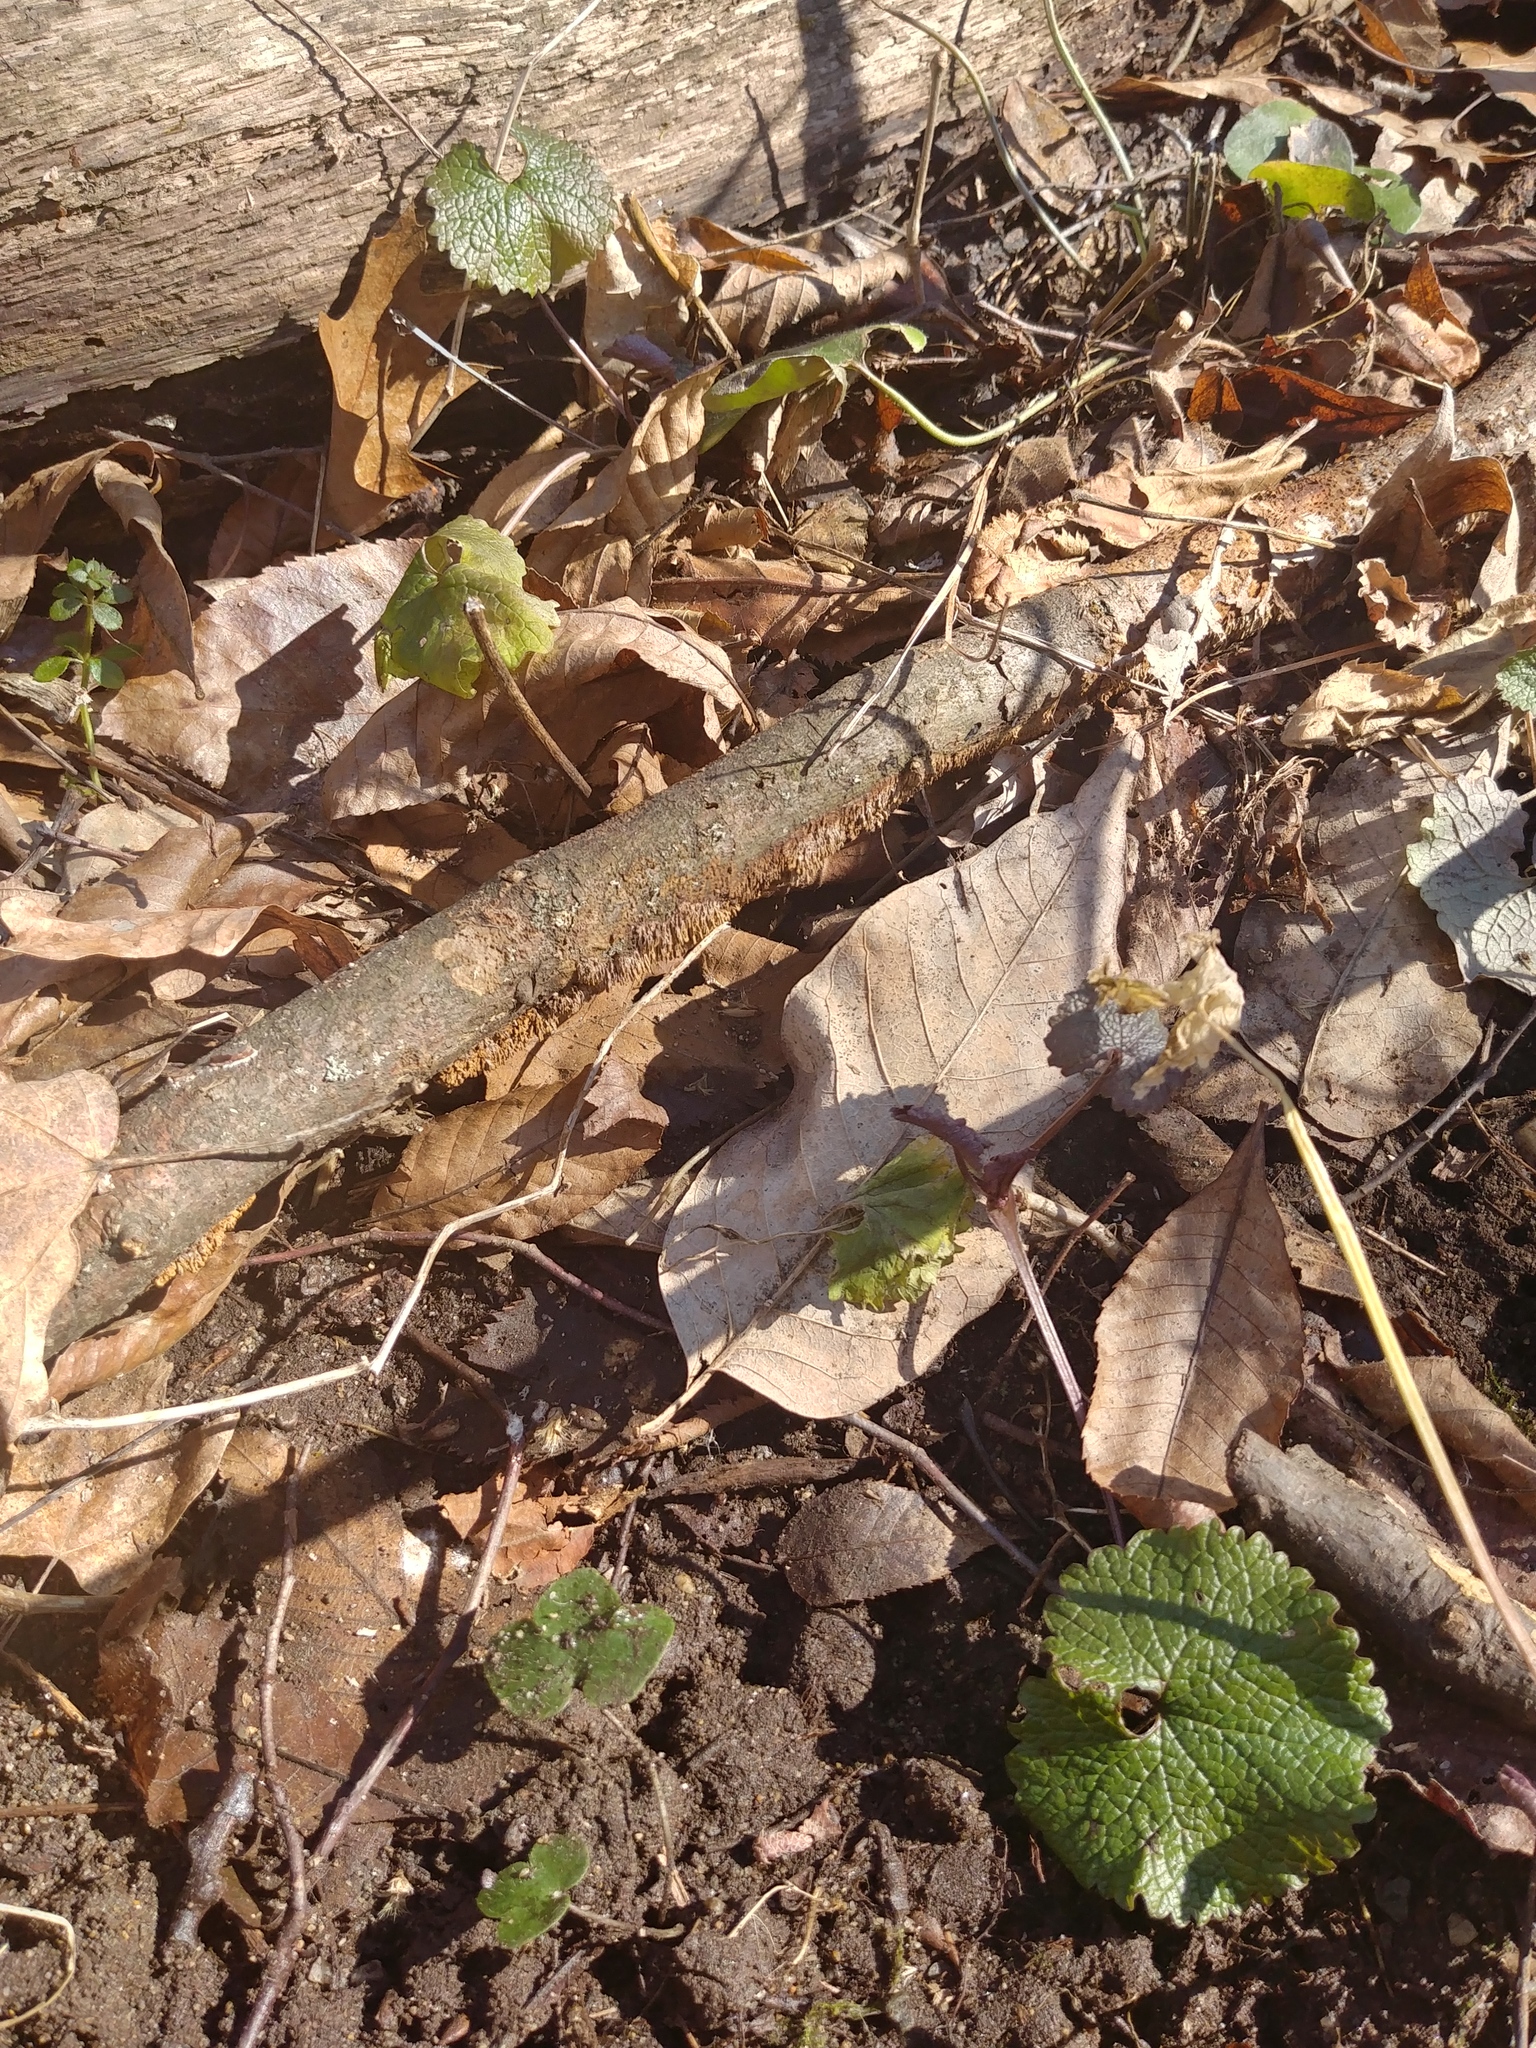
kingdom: Plantae
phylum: Tracheophyta
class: Magnoliopsida
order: Brassicales
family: Brassicaceae
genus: Alliaria
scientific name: Alliaria petiolata
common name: Garlic mustard
